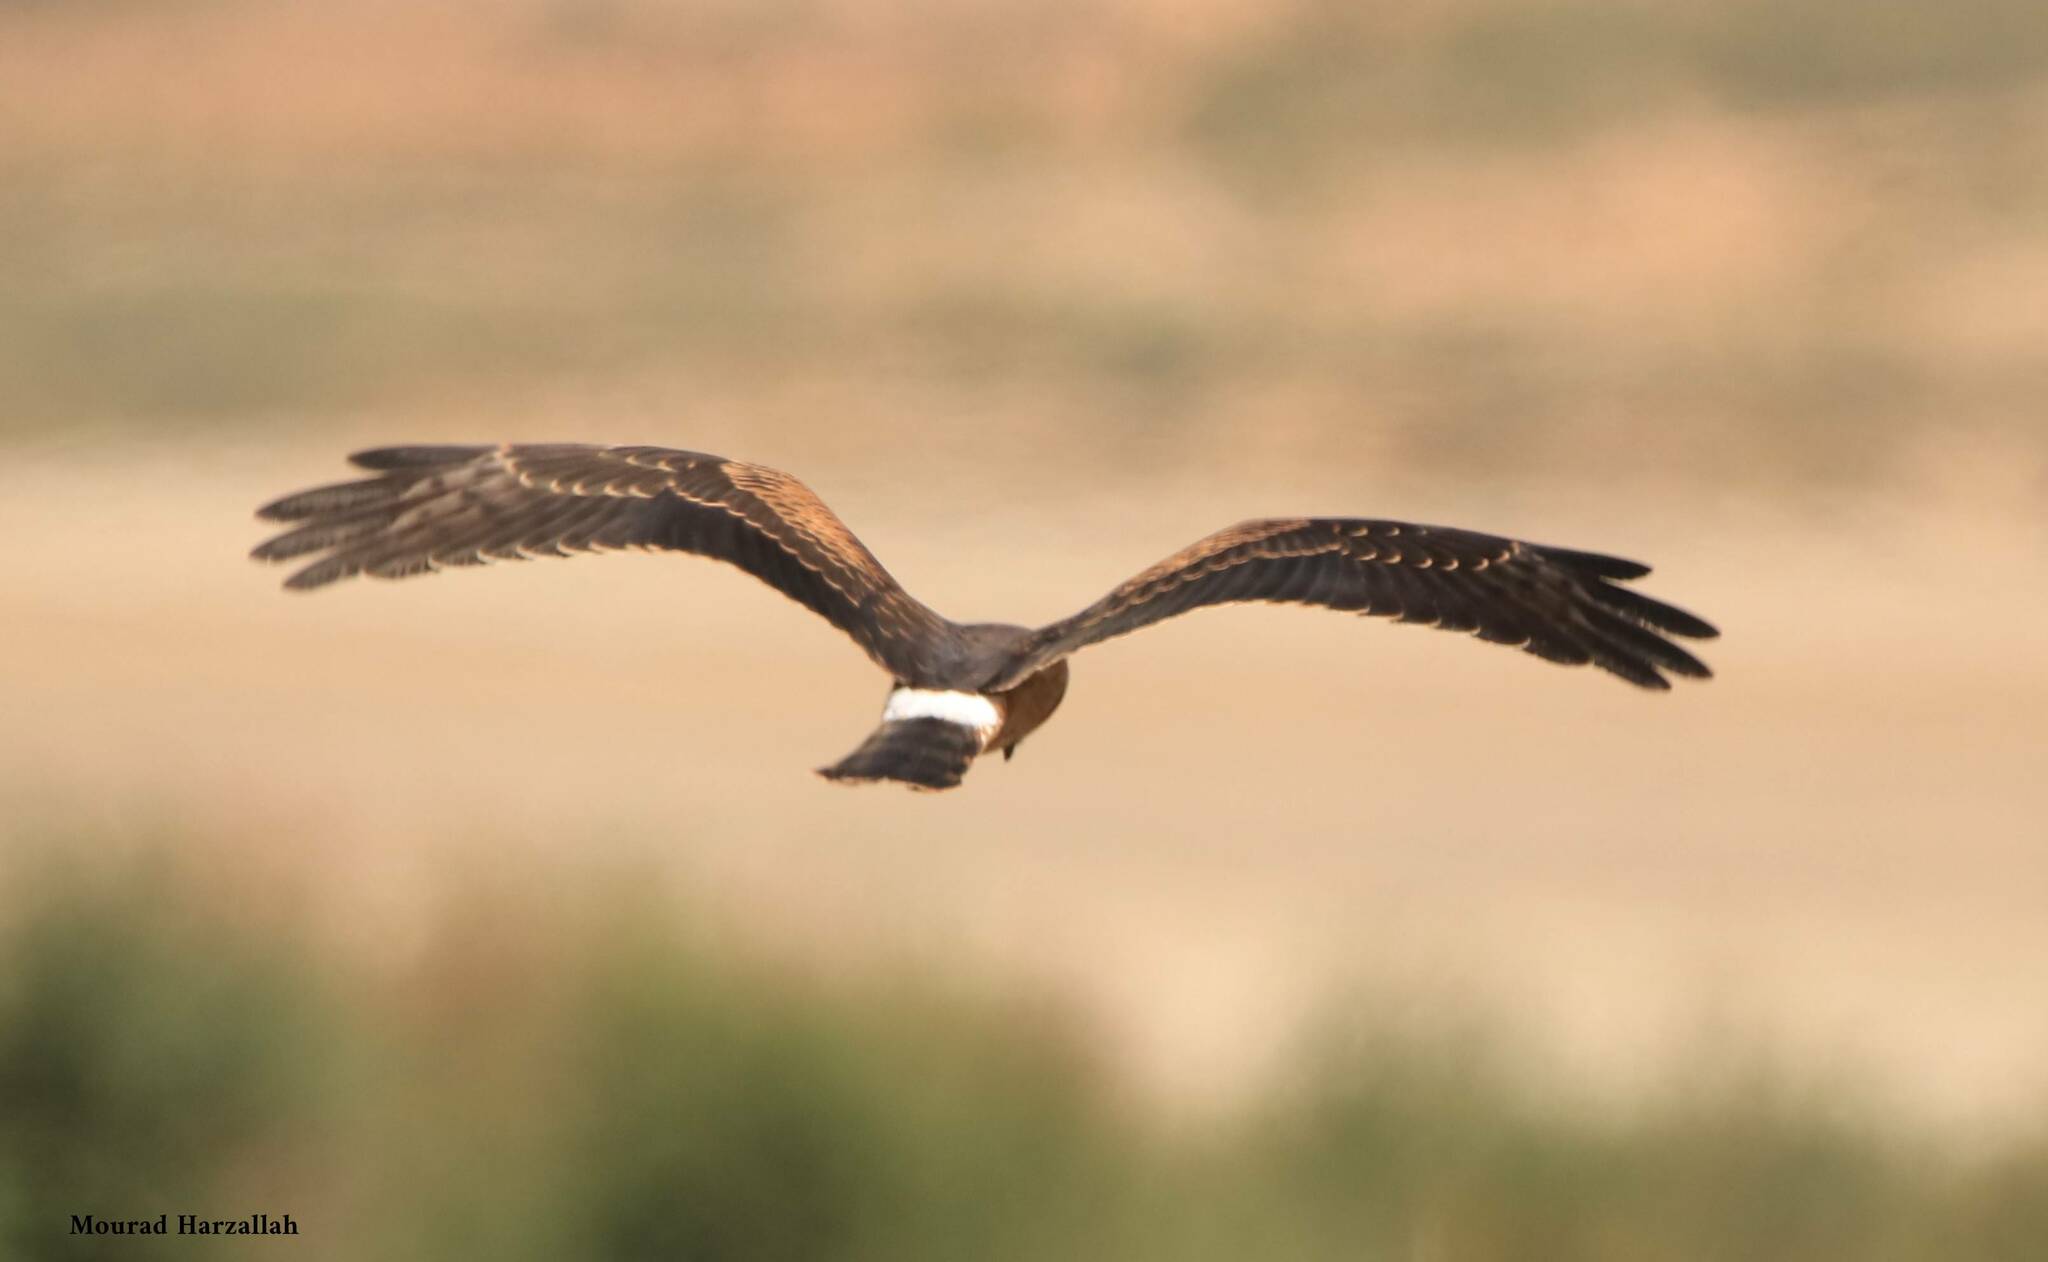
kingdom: Animalia
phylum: Chordata
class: Aves
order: Accipitriformes
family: Accipitridae
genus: Circus
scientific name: Circus pygargus
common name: Montagu's harrier
